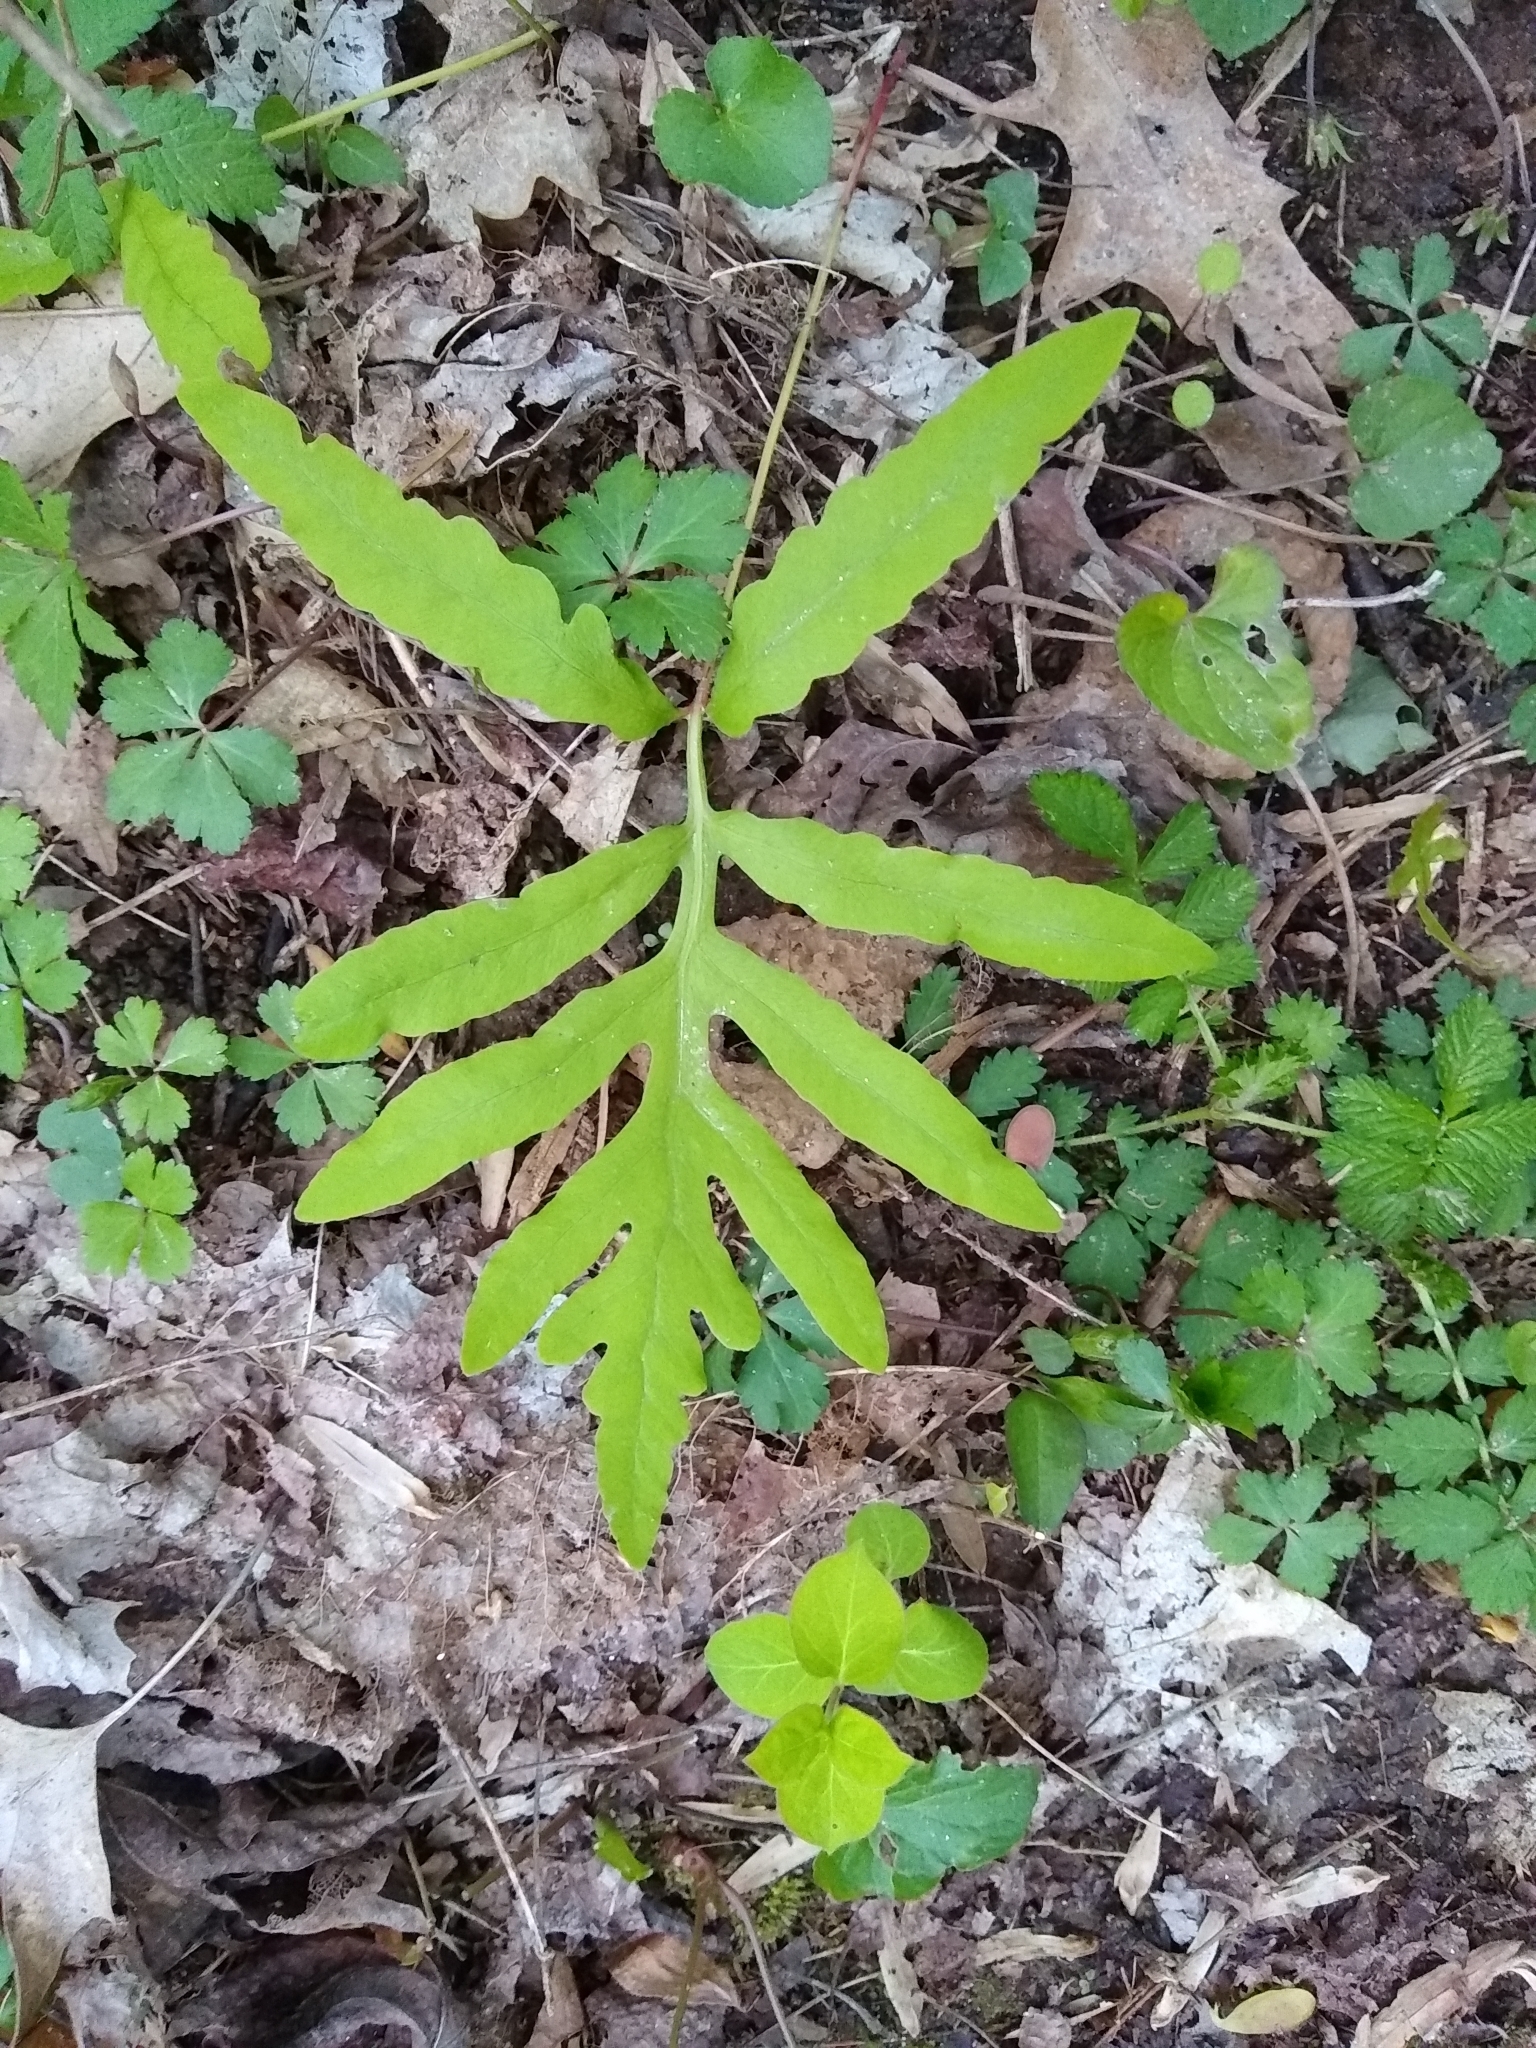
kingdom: Plantae
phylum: Tracheophyta
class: Polypodiopsida
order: Polypodiales
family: Onocleaceae
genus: Onoclea
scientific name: Onoclea sensibilis
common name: Sensitive fern
